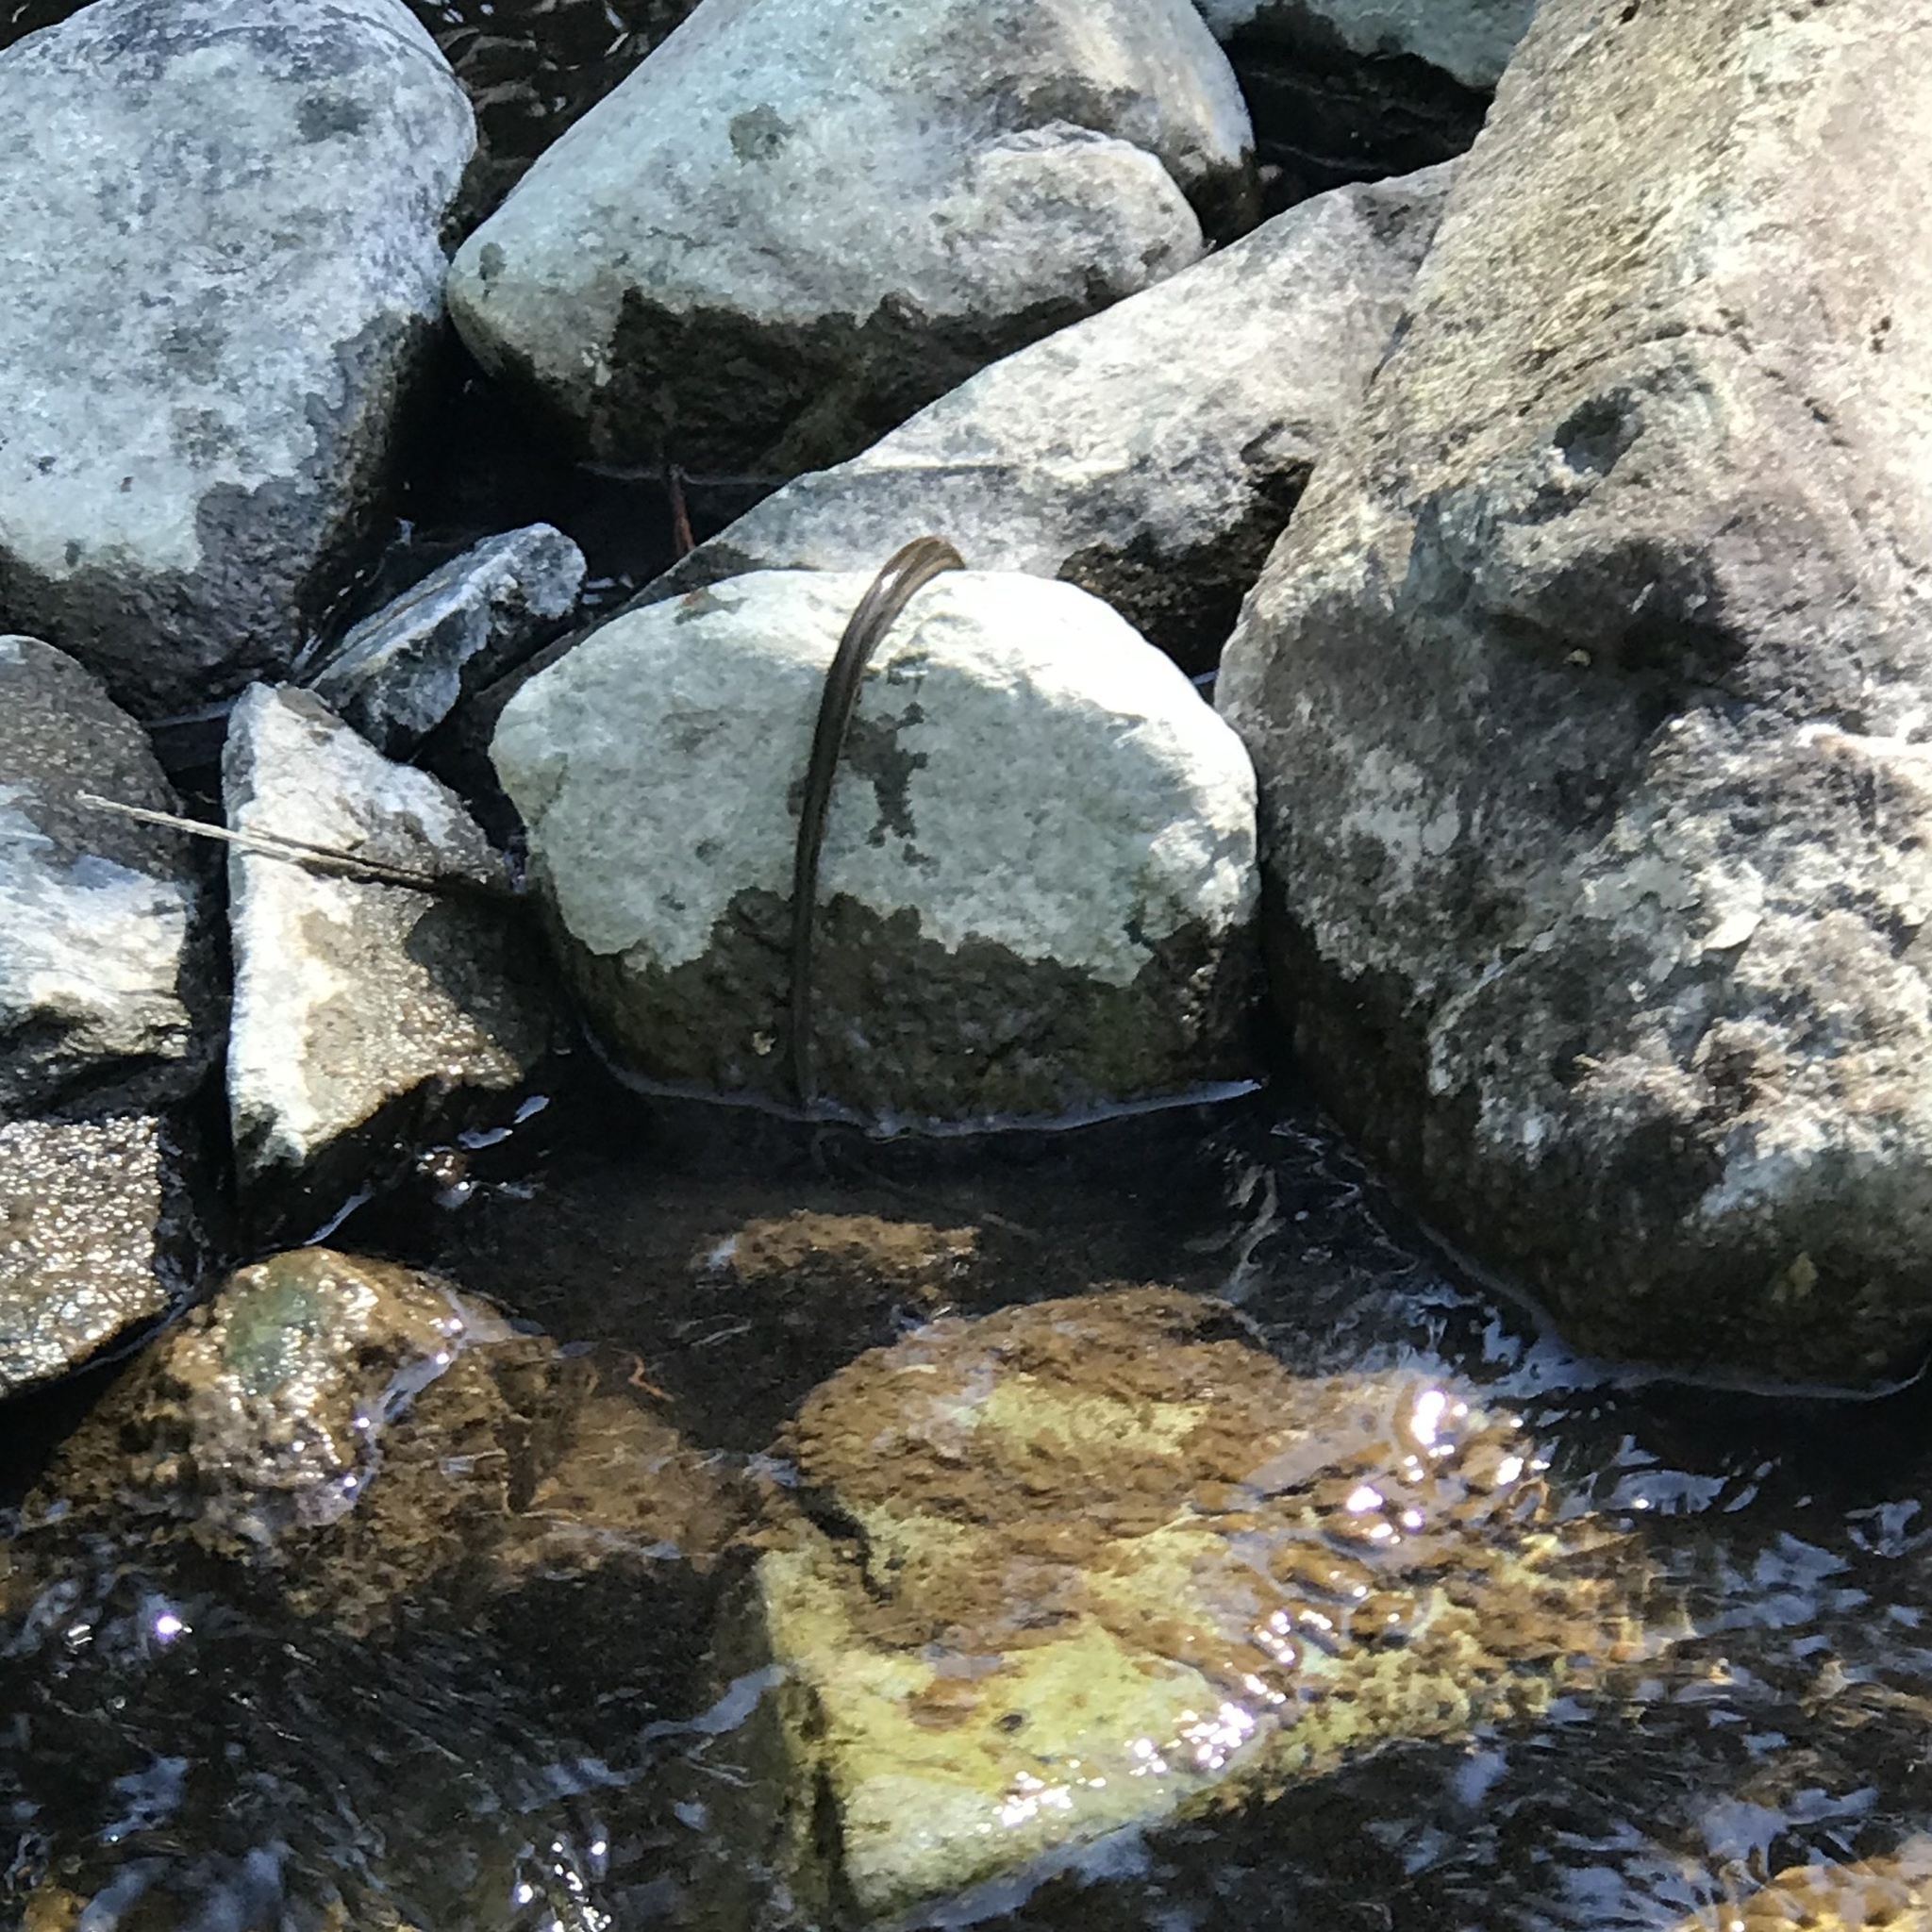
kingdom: Animalia
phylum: Chordata
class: Squamata
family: Colubridae
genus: Thamnophis
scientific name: Thamnophis couchii
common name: Western aquatic garter snake
